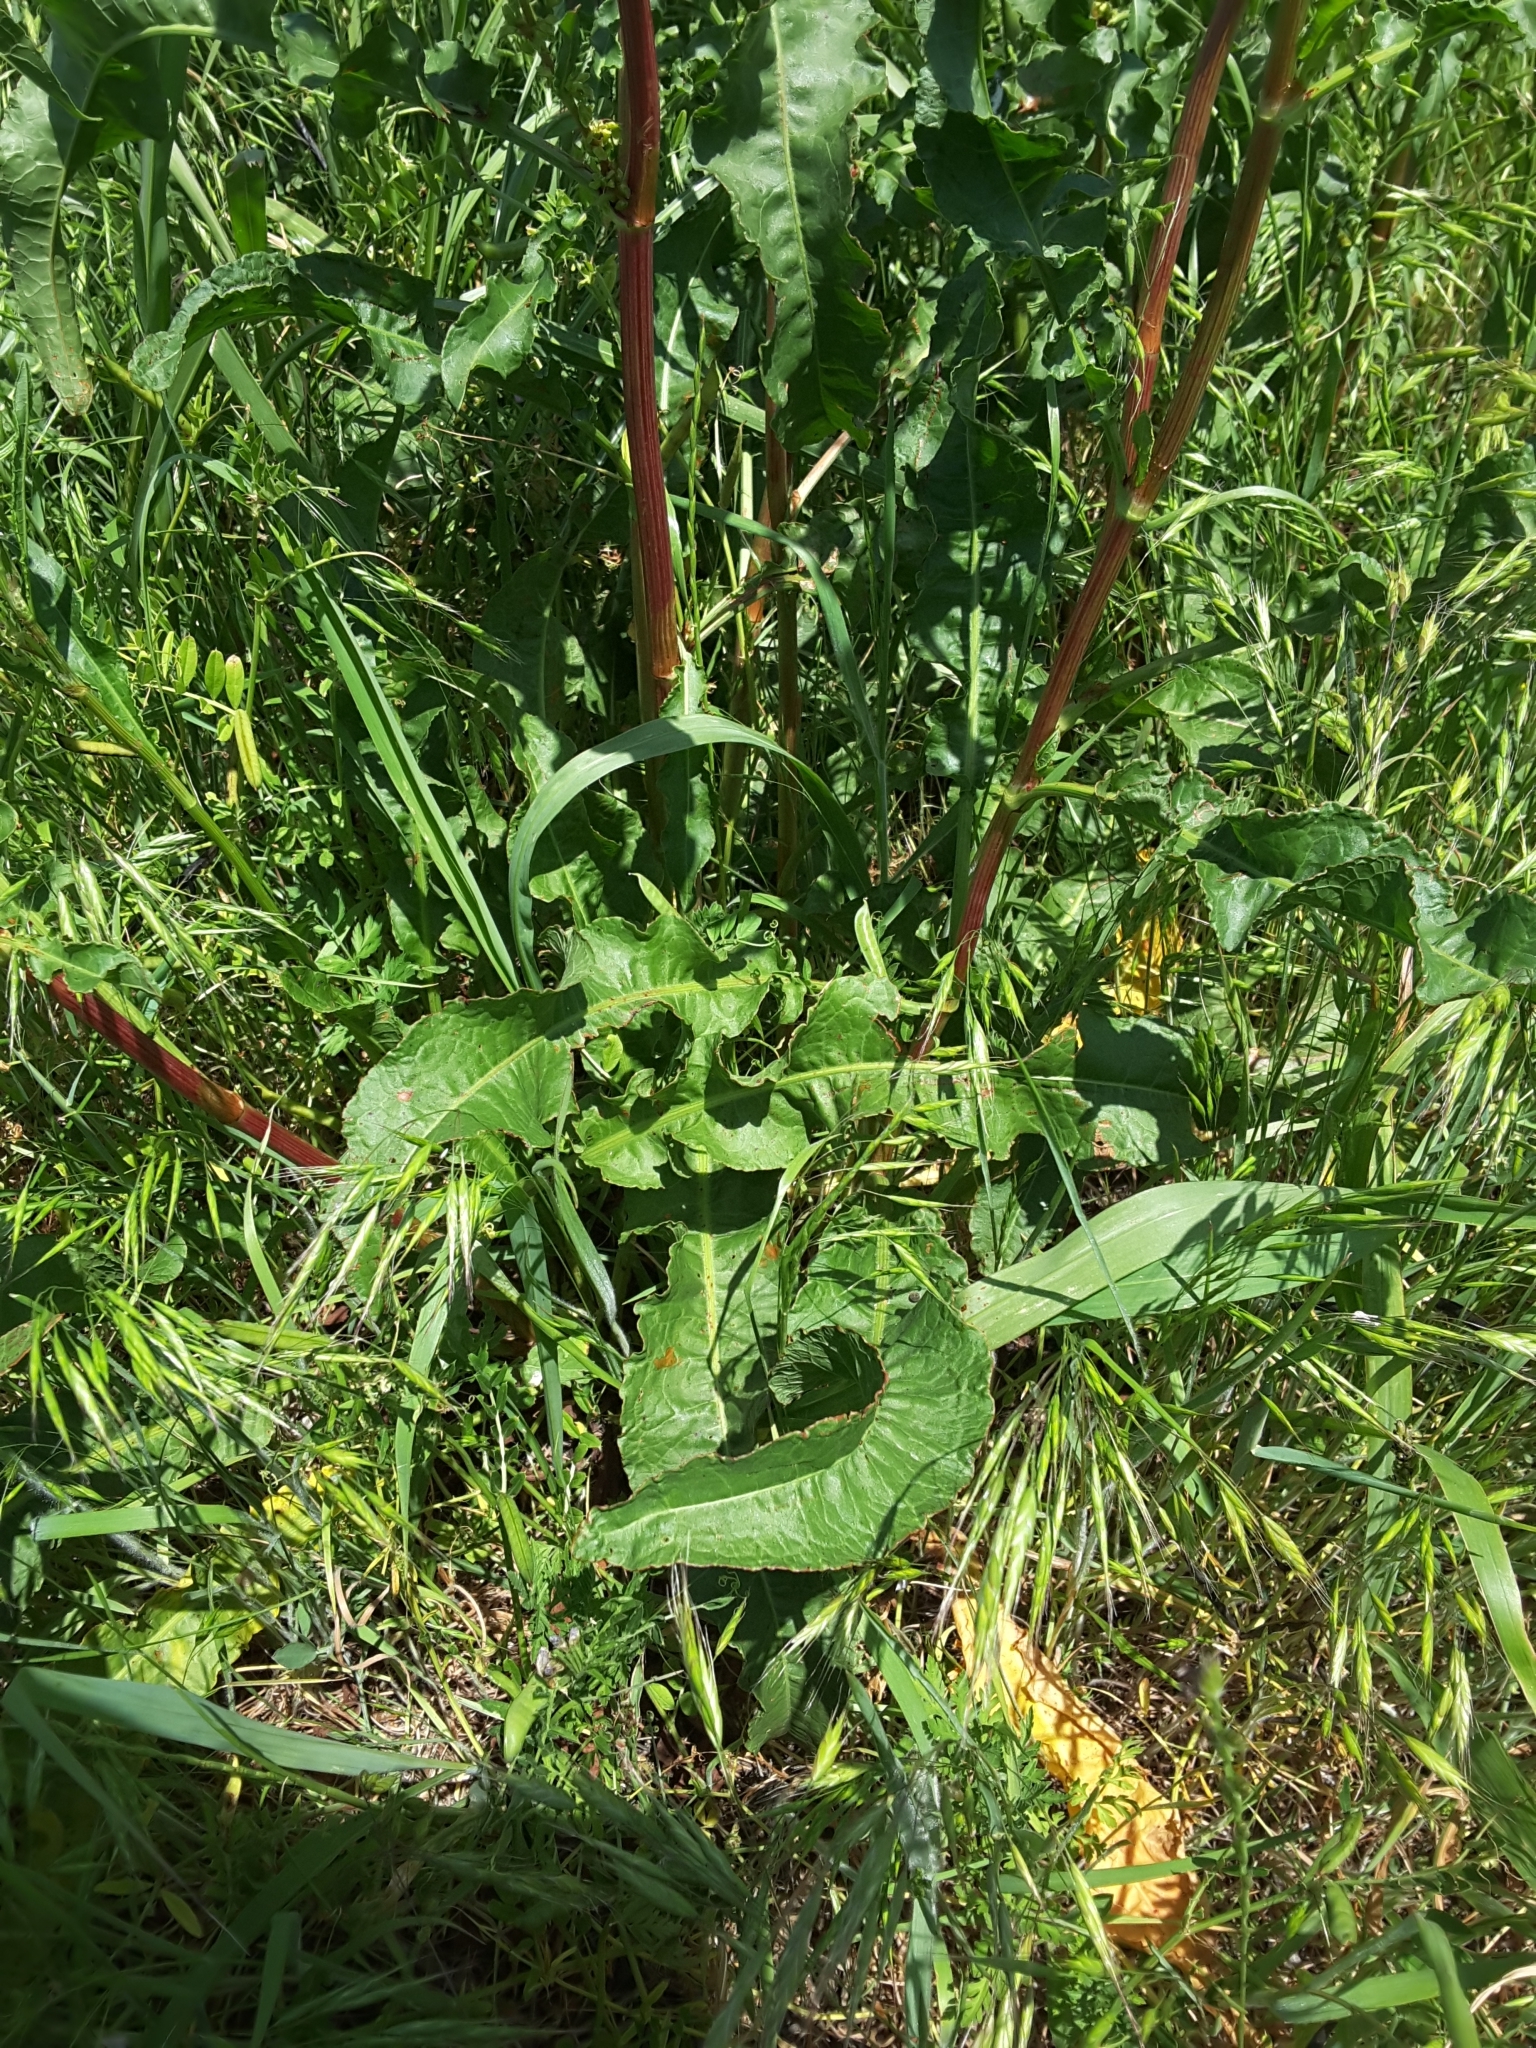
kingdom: Plantae
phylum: Tracheophyta
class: Magnoliopsida
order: Caryophyllales
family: Polygonaceae
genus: Rumex
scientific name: Rumex crispus
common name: Curled dock
